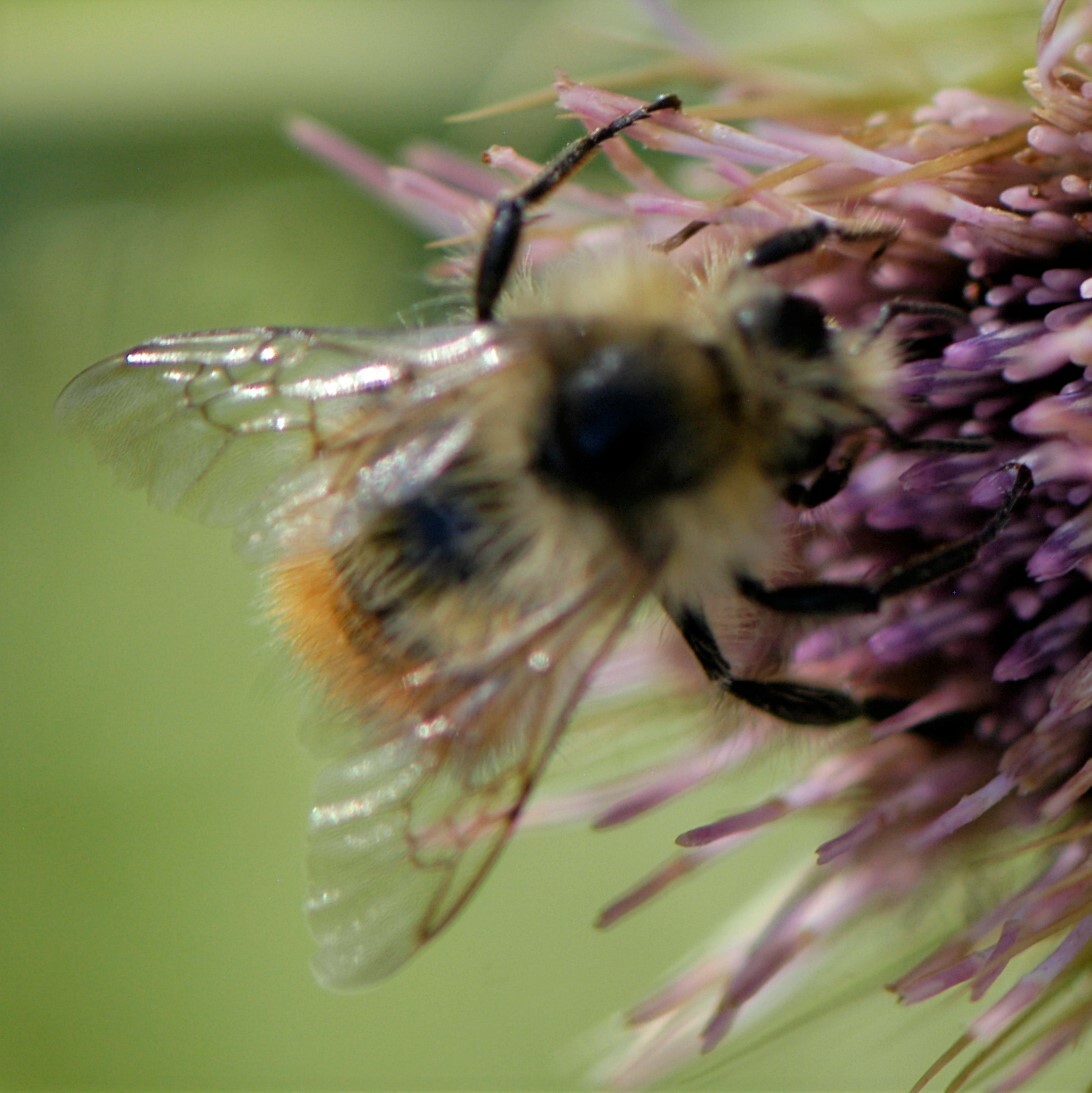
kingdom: Animalia
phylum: Arthropoda
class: Insecta
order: Hymenoptera
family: Apidae
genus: Bombus
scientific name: Bombus flavifrons
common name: Yellow head bumble bee
